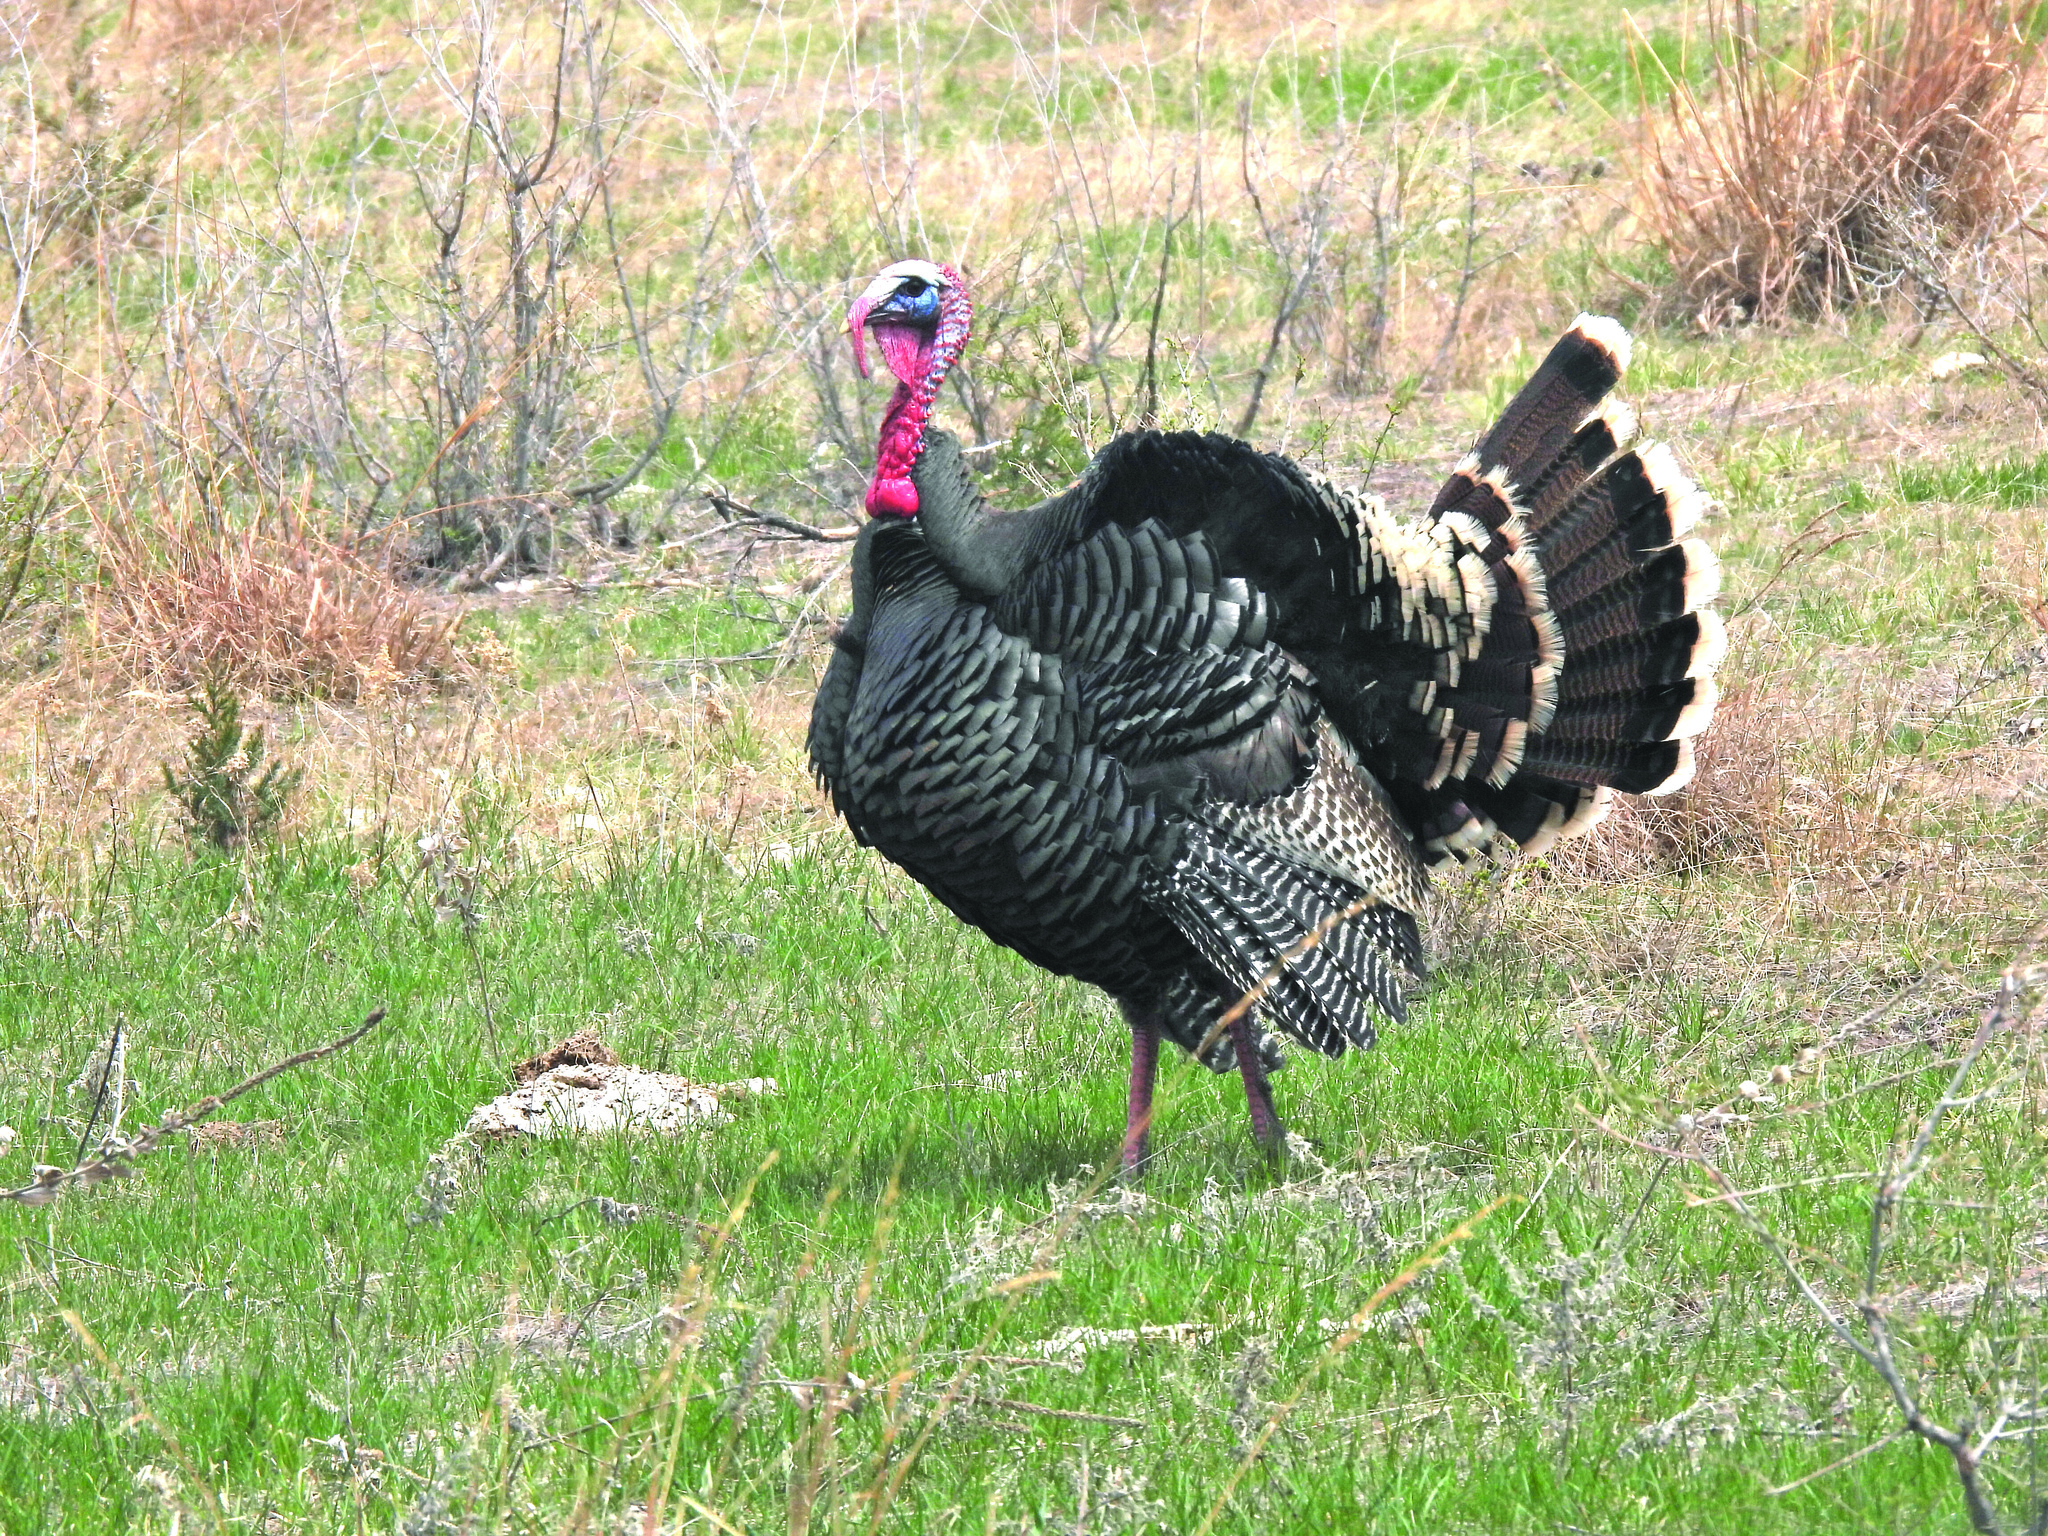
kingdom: Animalia
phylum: Chordata
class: Aves
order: Galliformes
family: Phasianidae
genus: Meleagris
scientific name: Meleagris gallopavo
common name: Wild turkey
